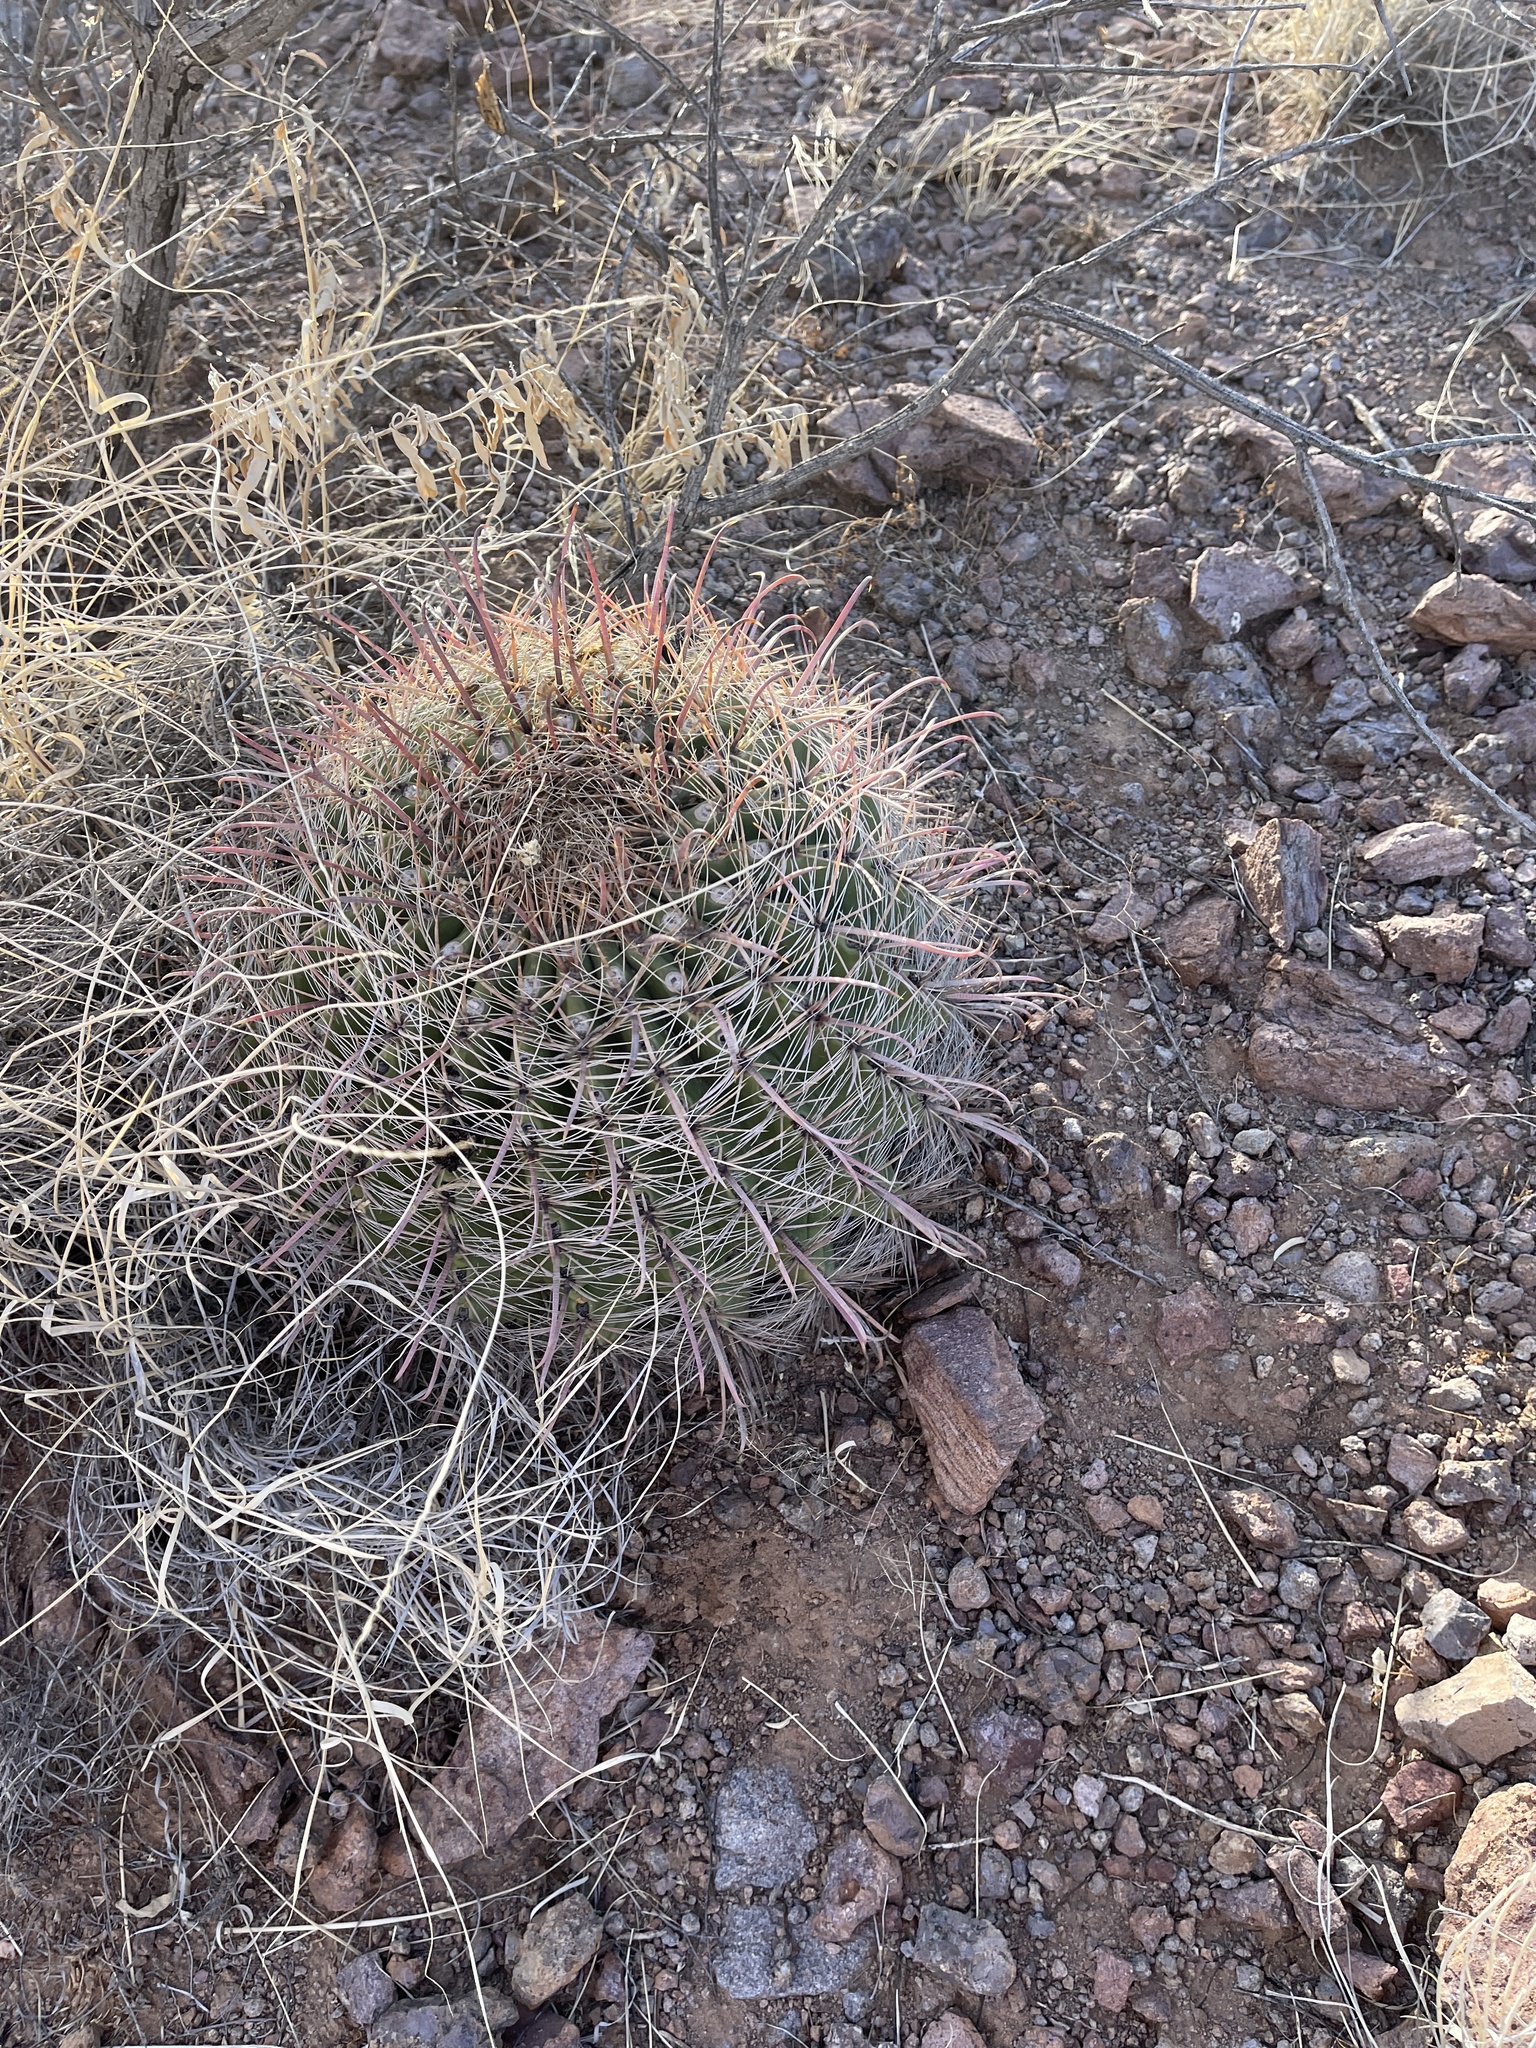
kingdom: Plantae
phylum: Tracheophyta
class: Magnoliopsida
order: Caryophyllales
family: Cactaceae
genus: Ferocactus
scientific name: Ferocactus wislizeni
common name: Candy barrel cactus
